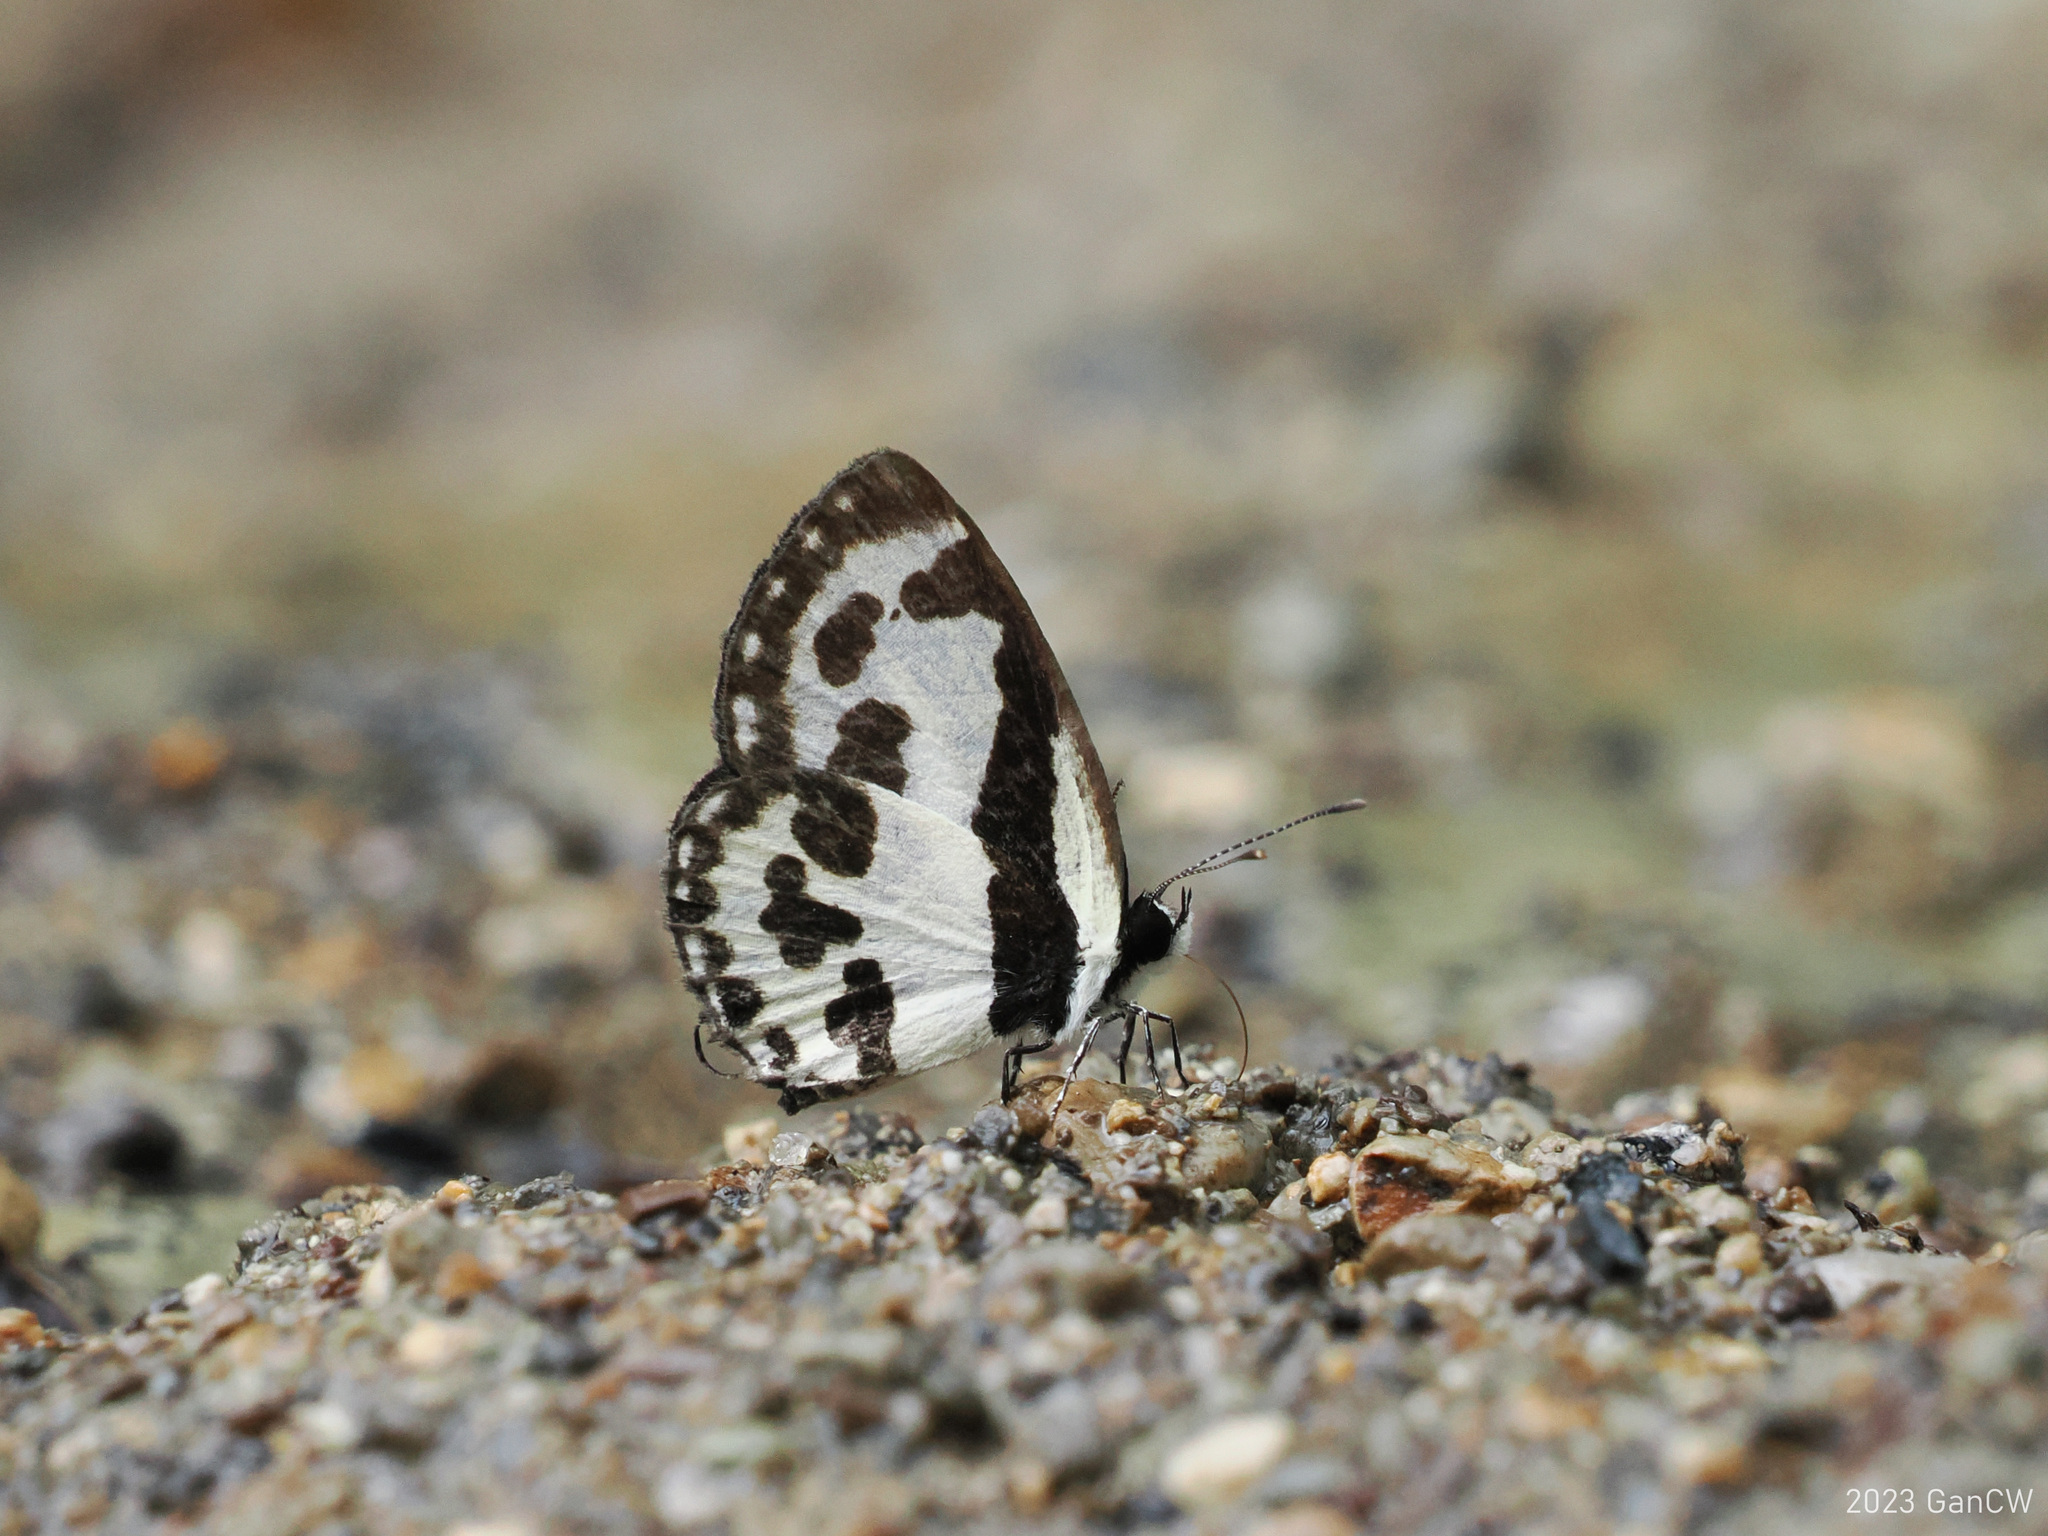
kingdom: Animalia
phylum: Arthropoda
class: Insecta
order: Lepidoptera
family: Lycaenidae
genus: Caleta
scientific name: Caleta
